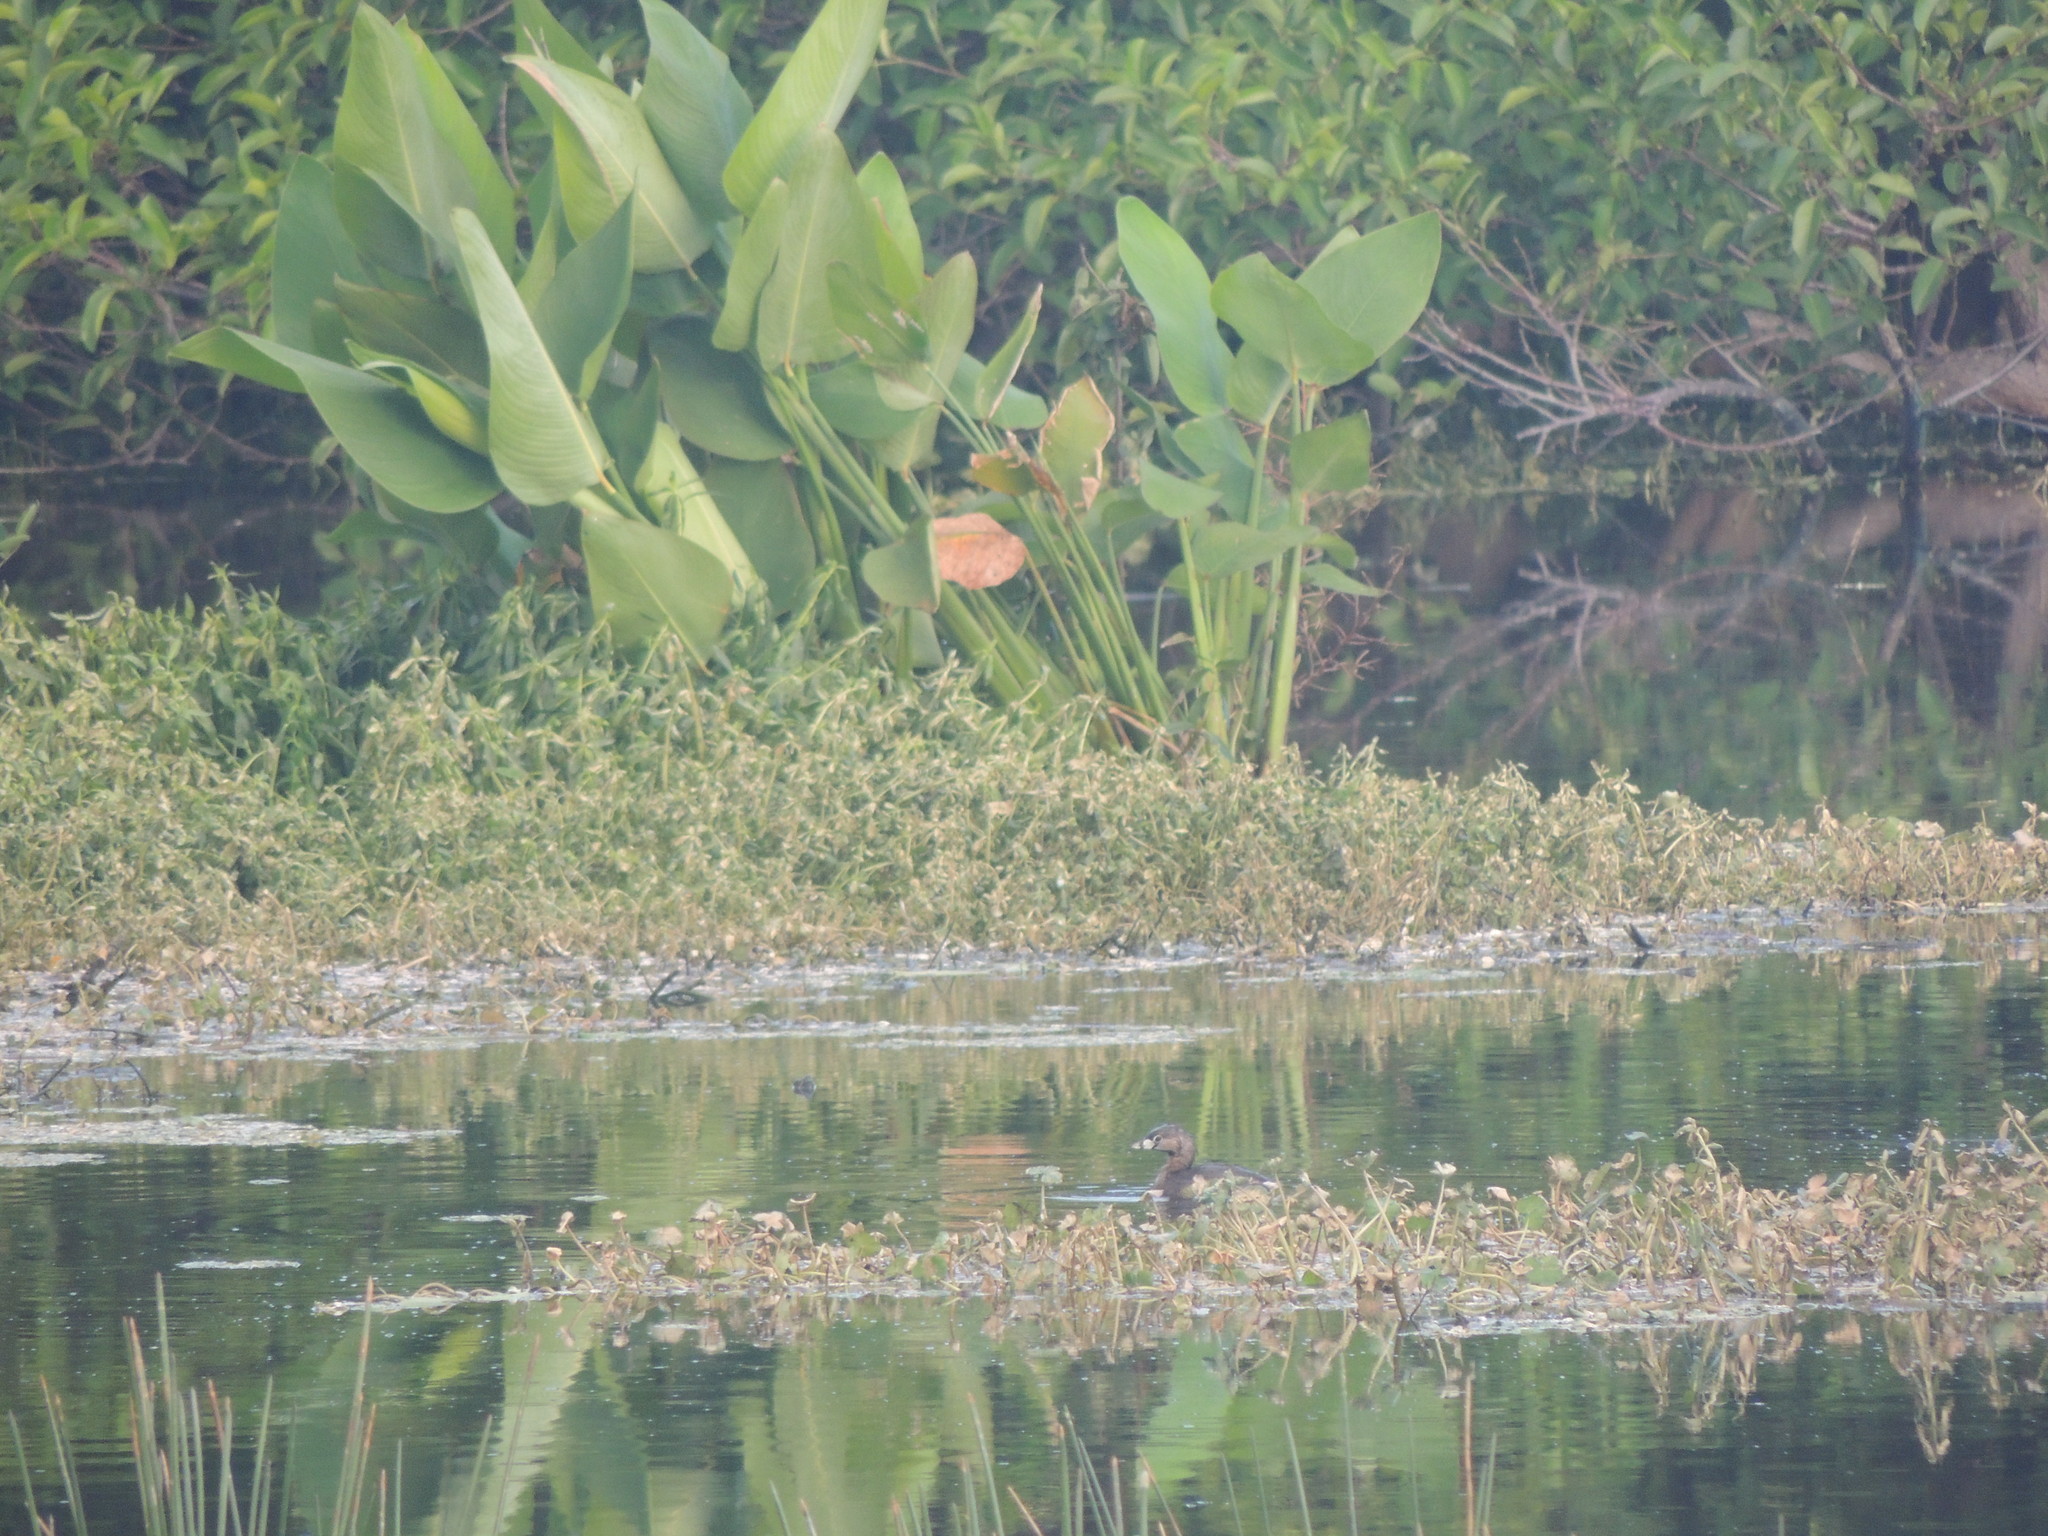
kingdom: Animalia
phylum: Chordata
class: Aves
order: Podicipediformes
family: Podicipedidae
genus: Podilymbus
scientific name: Podilymbus podiceps
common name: Pied-billed grebe
